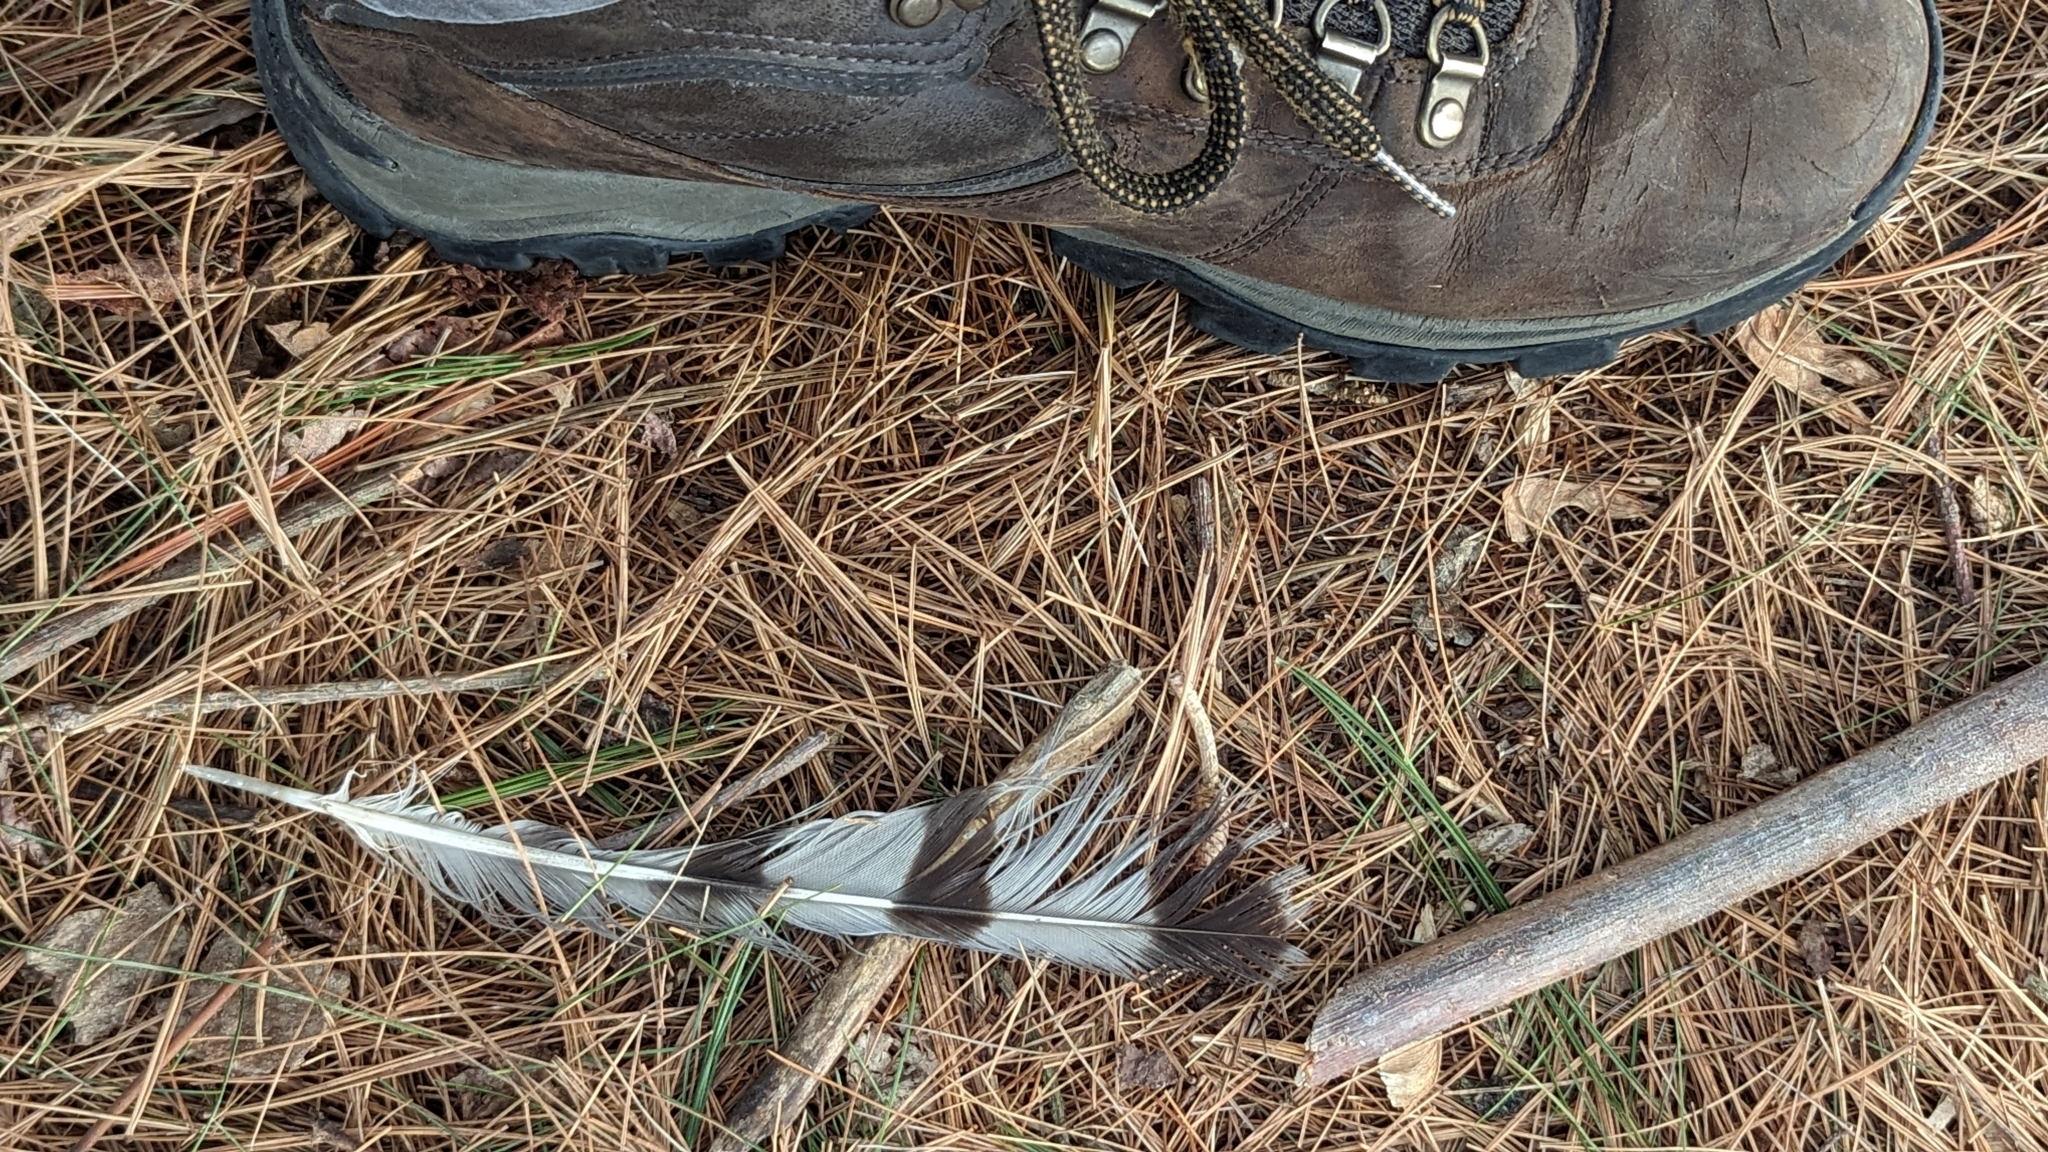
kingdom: Animalia
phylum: Chordata
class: Aves
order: Accipitriformes
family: Accipitridae
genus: Accipiter
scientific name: Accipiter cooperii
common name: Cooper's hawk
